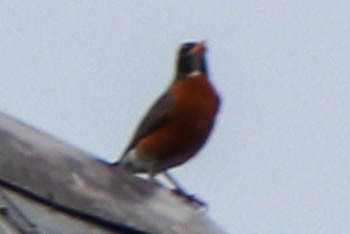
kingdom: Animalia
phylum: Chordata
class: Aves
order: Passeriformes
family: Turdidae
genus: Turdus
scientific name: Turdus migratorius
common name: American robin
